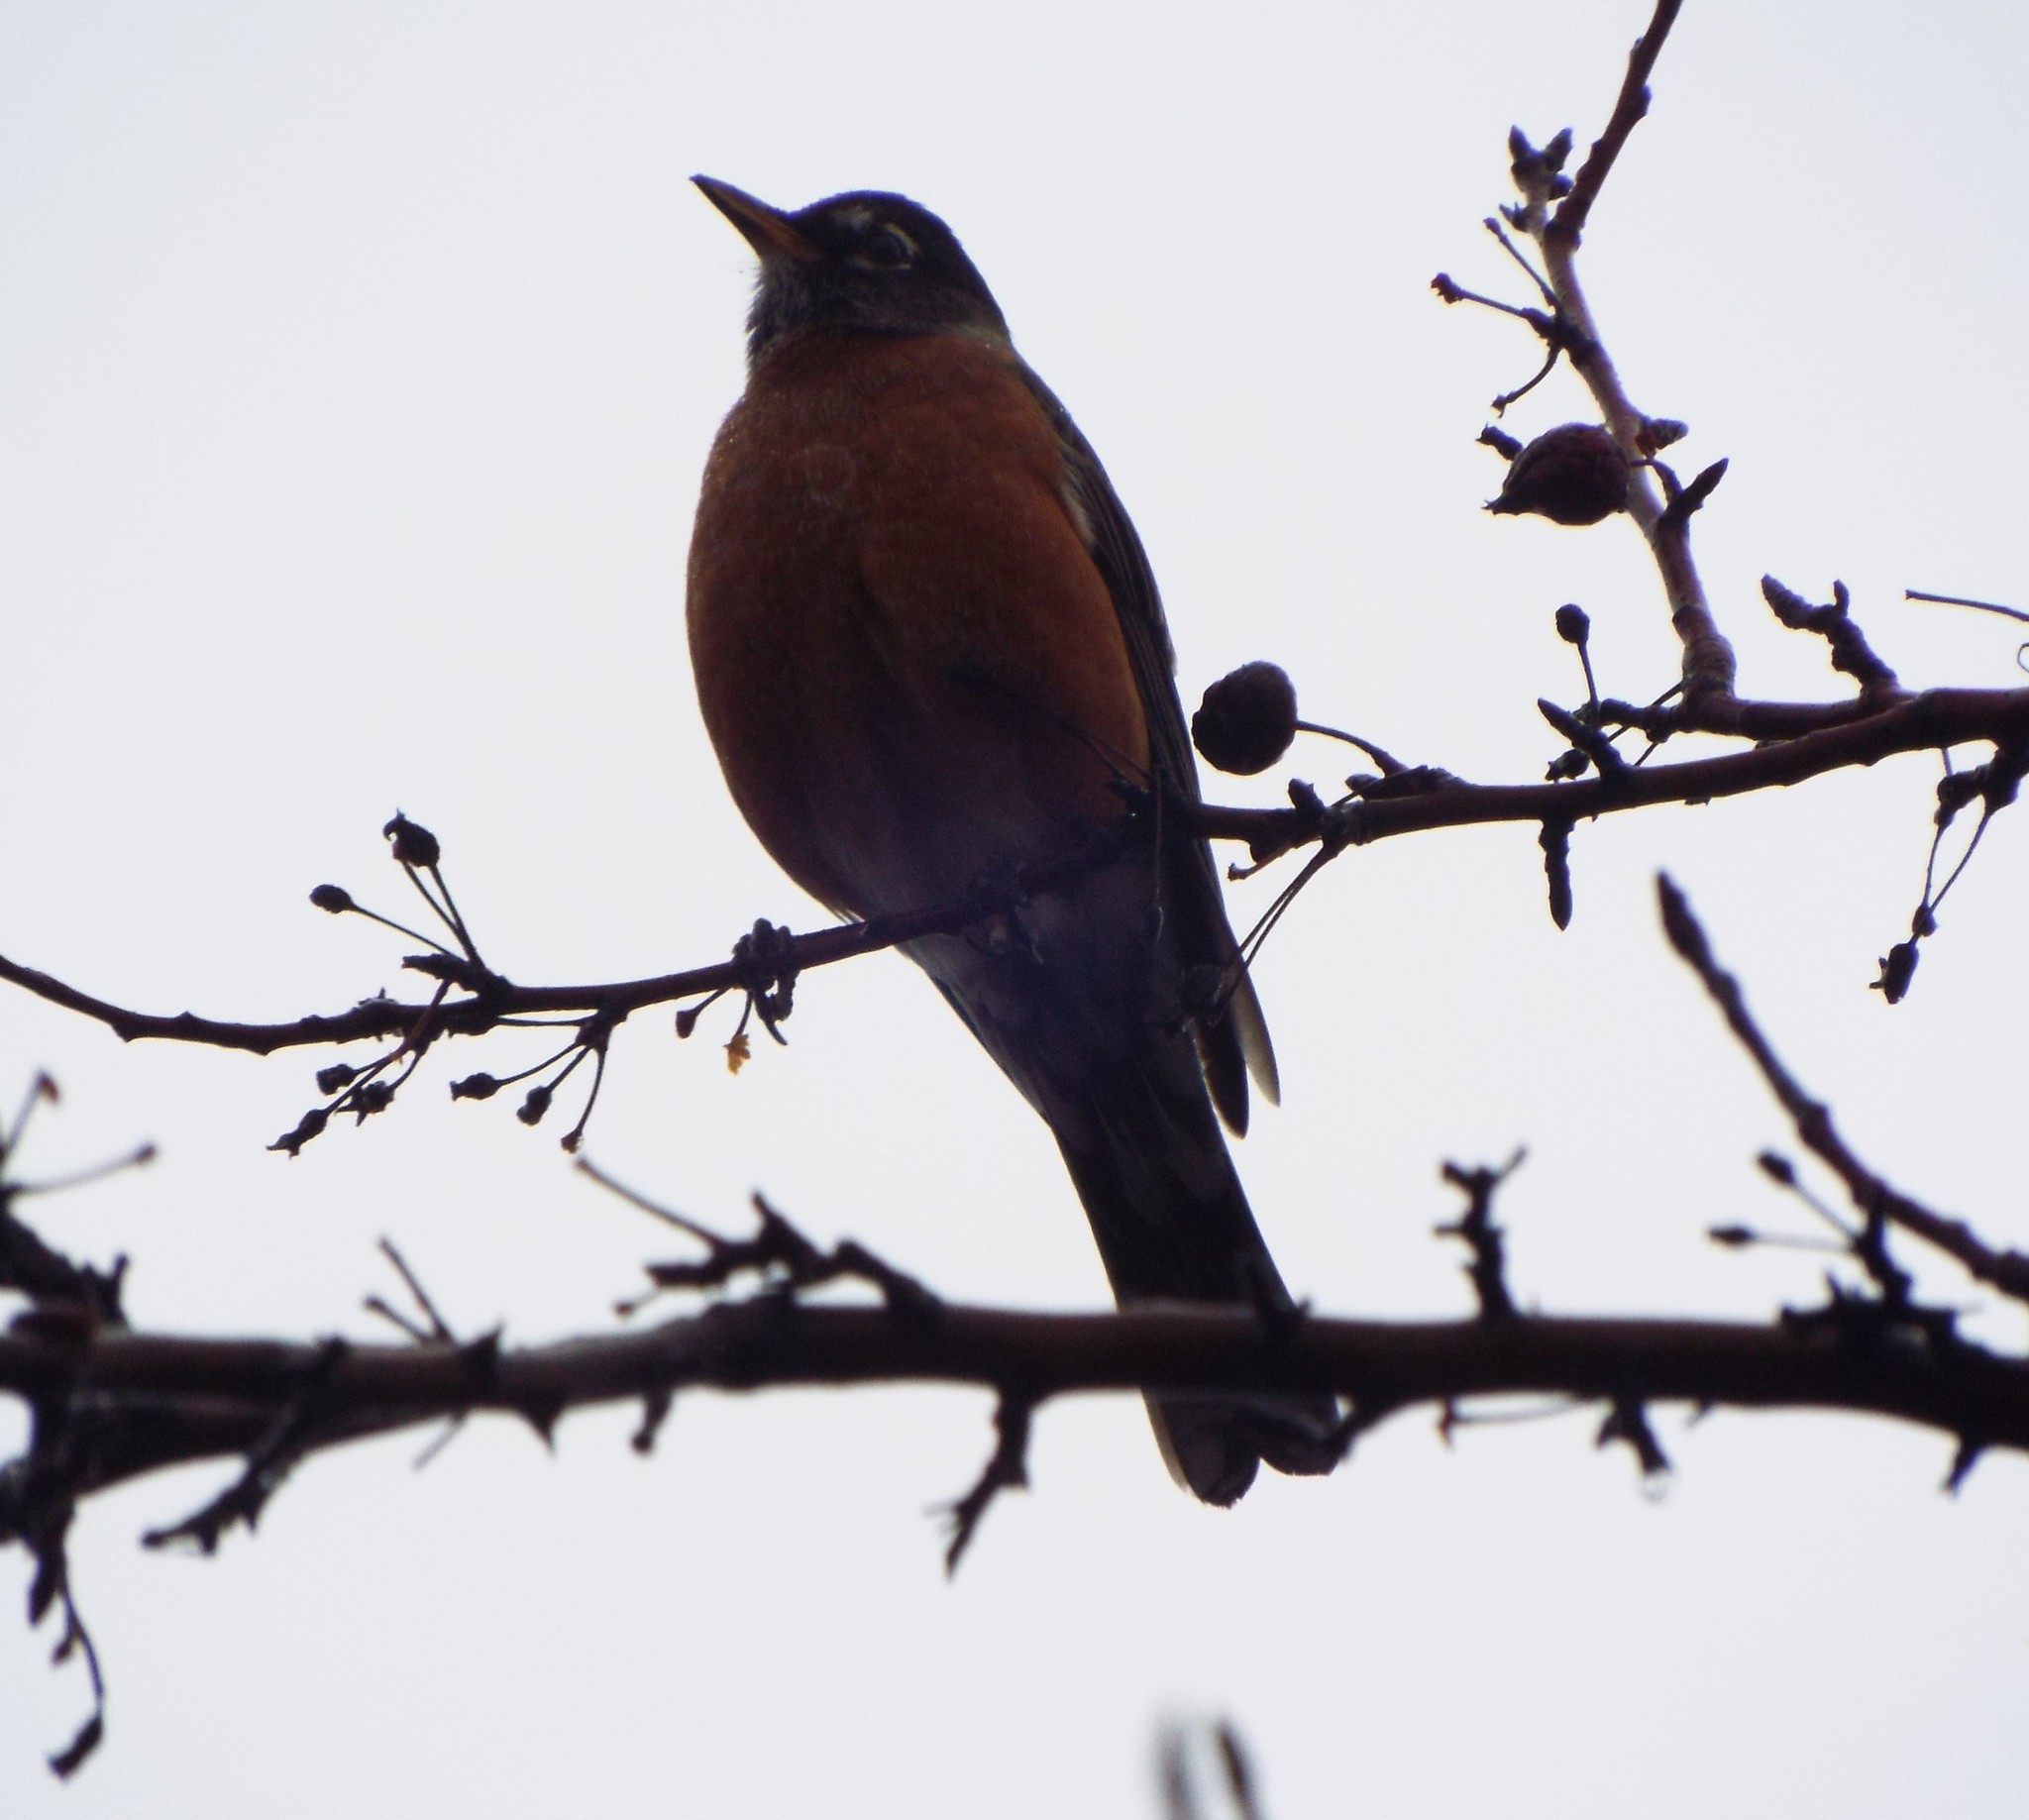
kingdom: Animalia
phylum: Chordata
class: Aves
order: Passeriformes
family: Turdidae
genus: Turdus
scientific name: Turdus migratorius
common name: American robin
